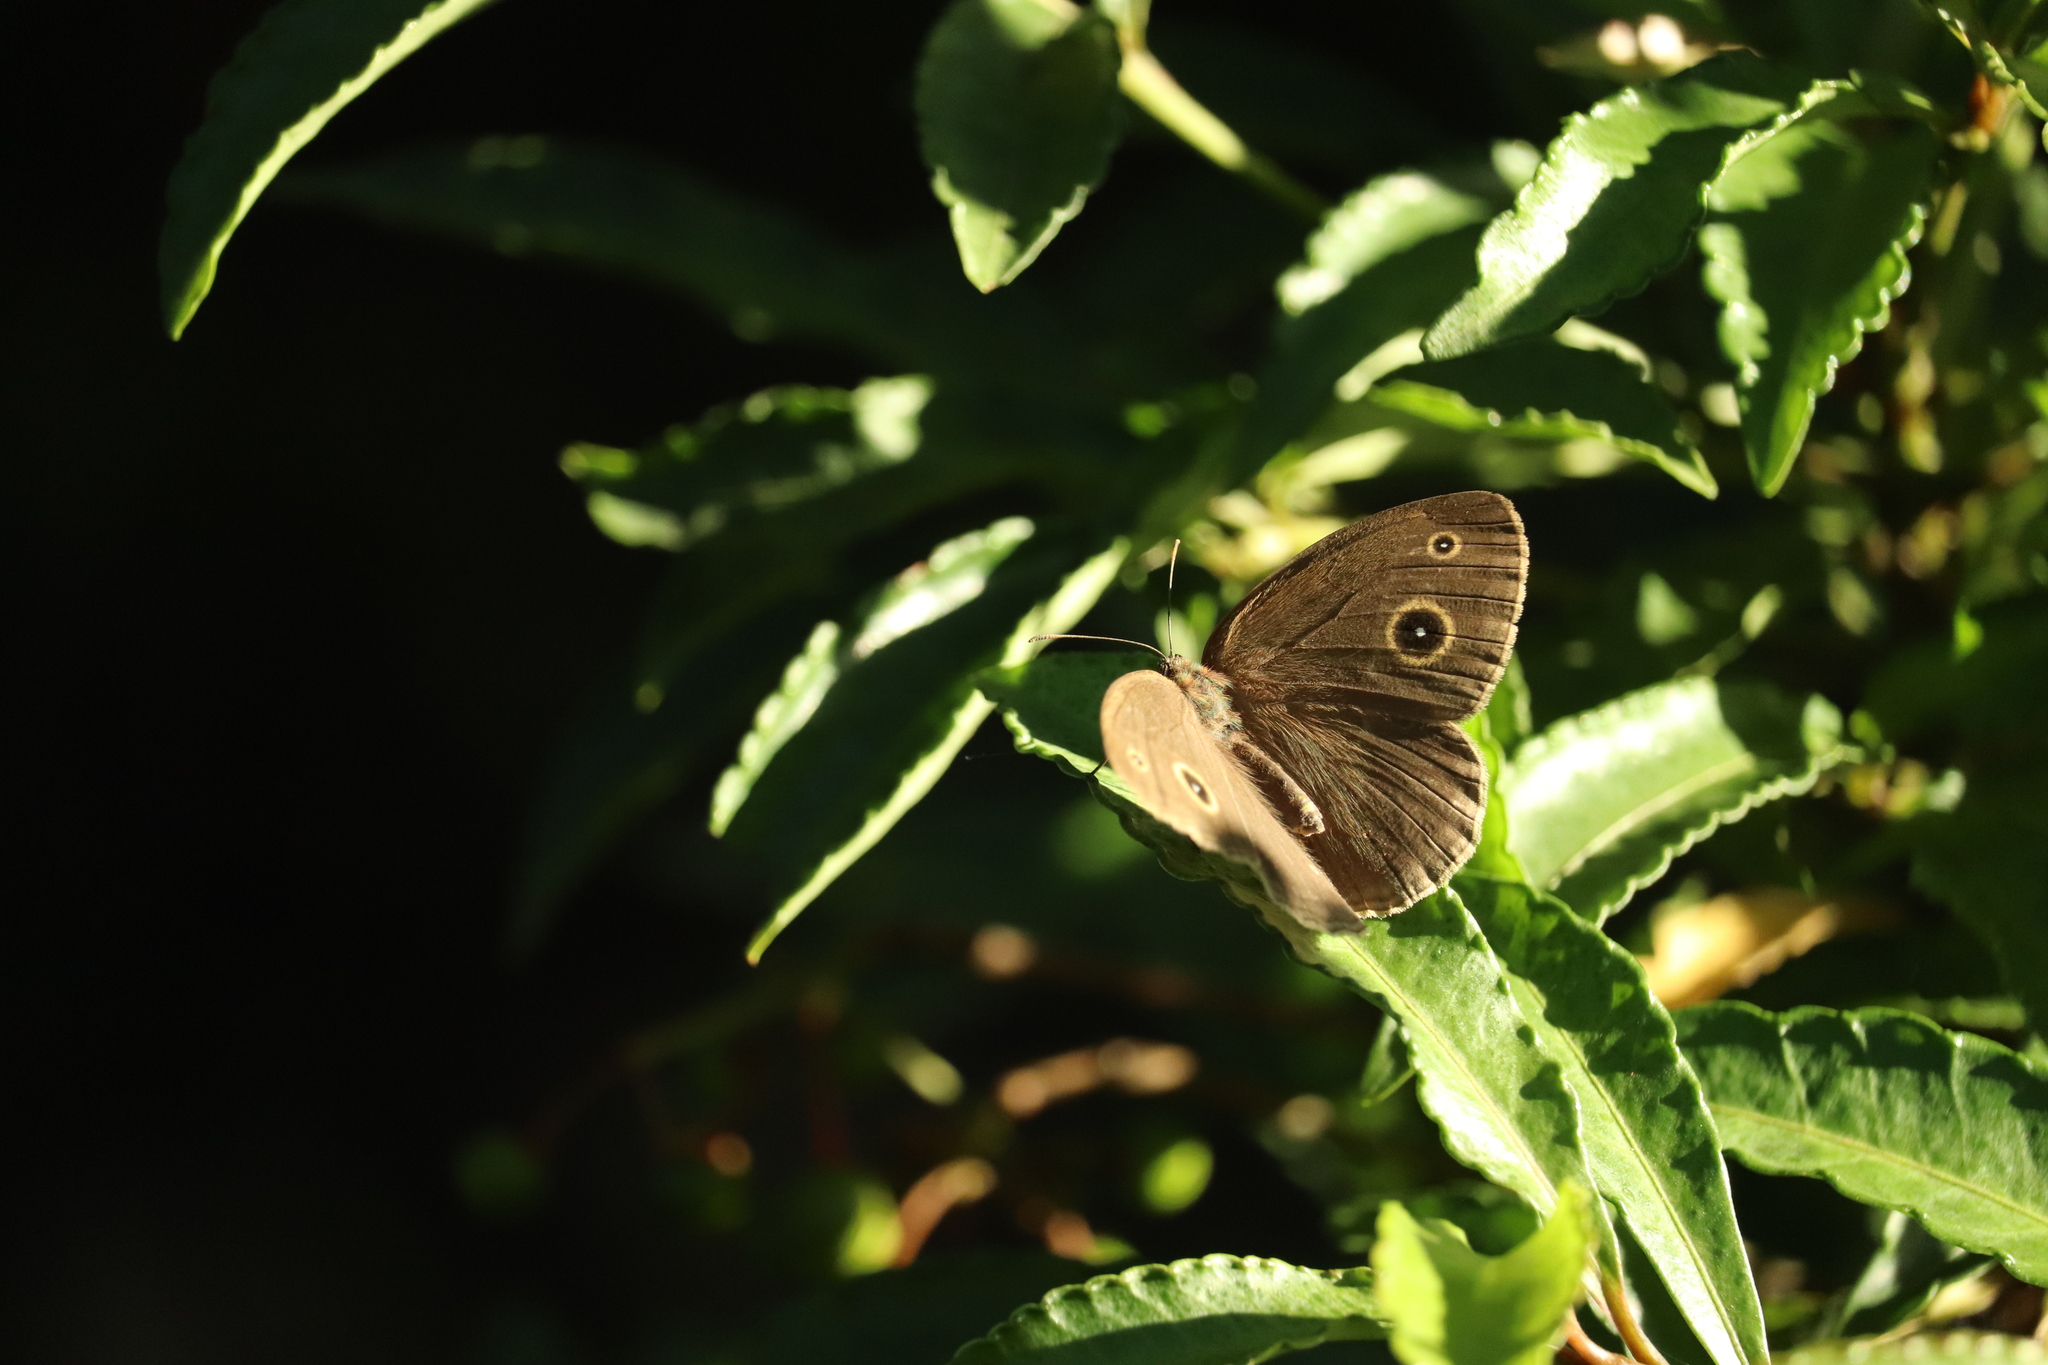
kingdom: Animalia
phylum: Arthropoda
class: Insecta
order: Lepidoptera
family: Nymphalidae
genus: Mycalesis
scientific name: Mycalesis gotama
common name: Chinese bushbrown
